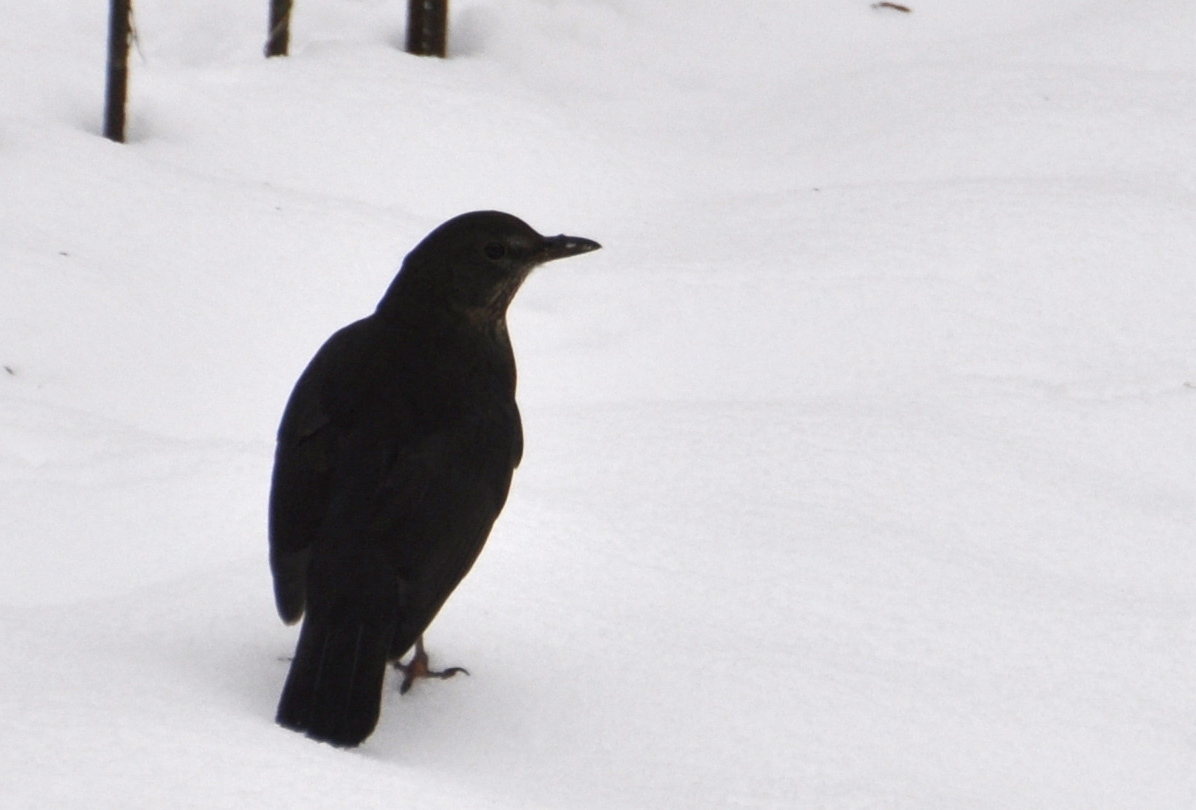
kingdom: Animalia
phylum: Chordata
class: Aves
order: Passeriformes
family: Turdidae
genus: Turdus
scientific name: Turdus merula
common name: Common blackbird
